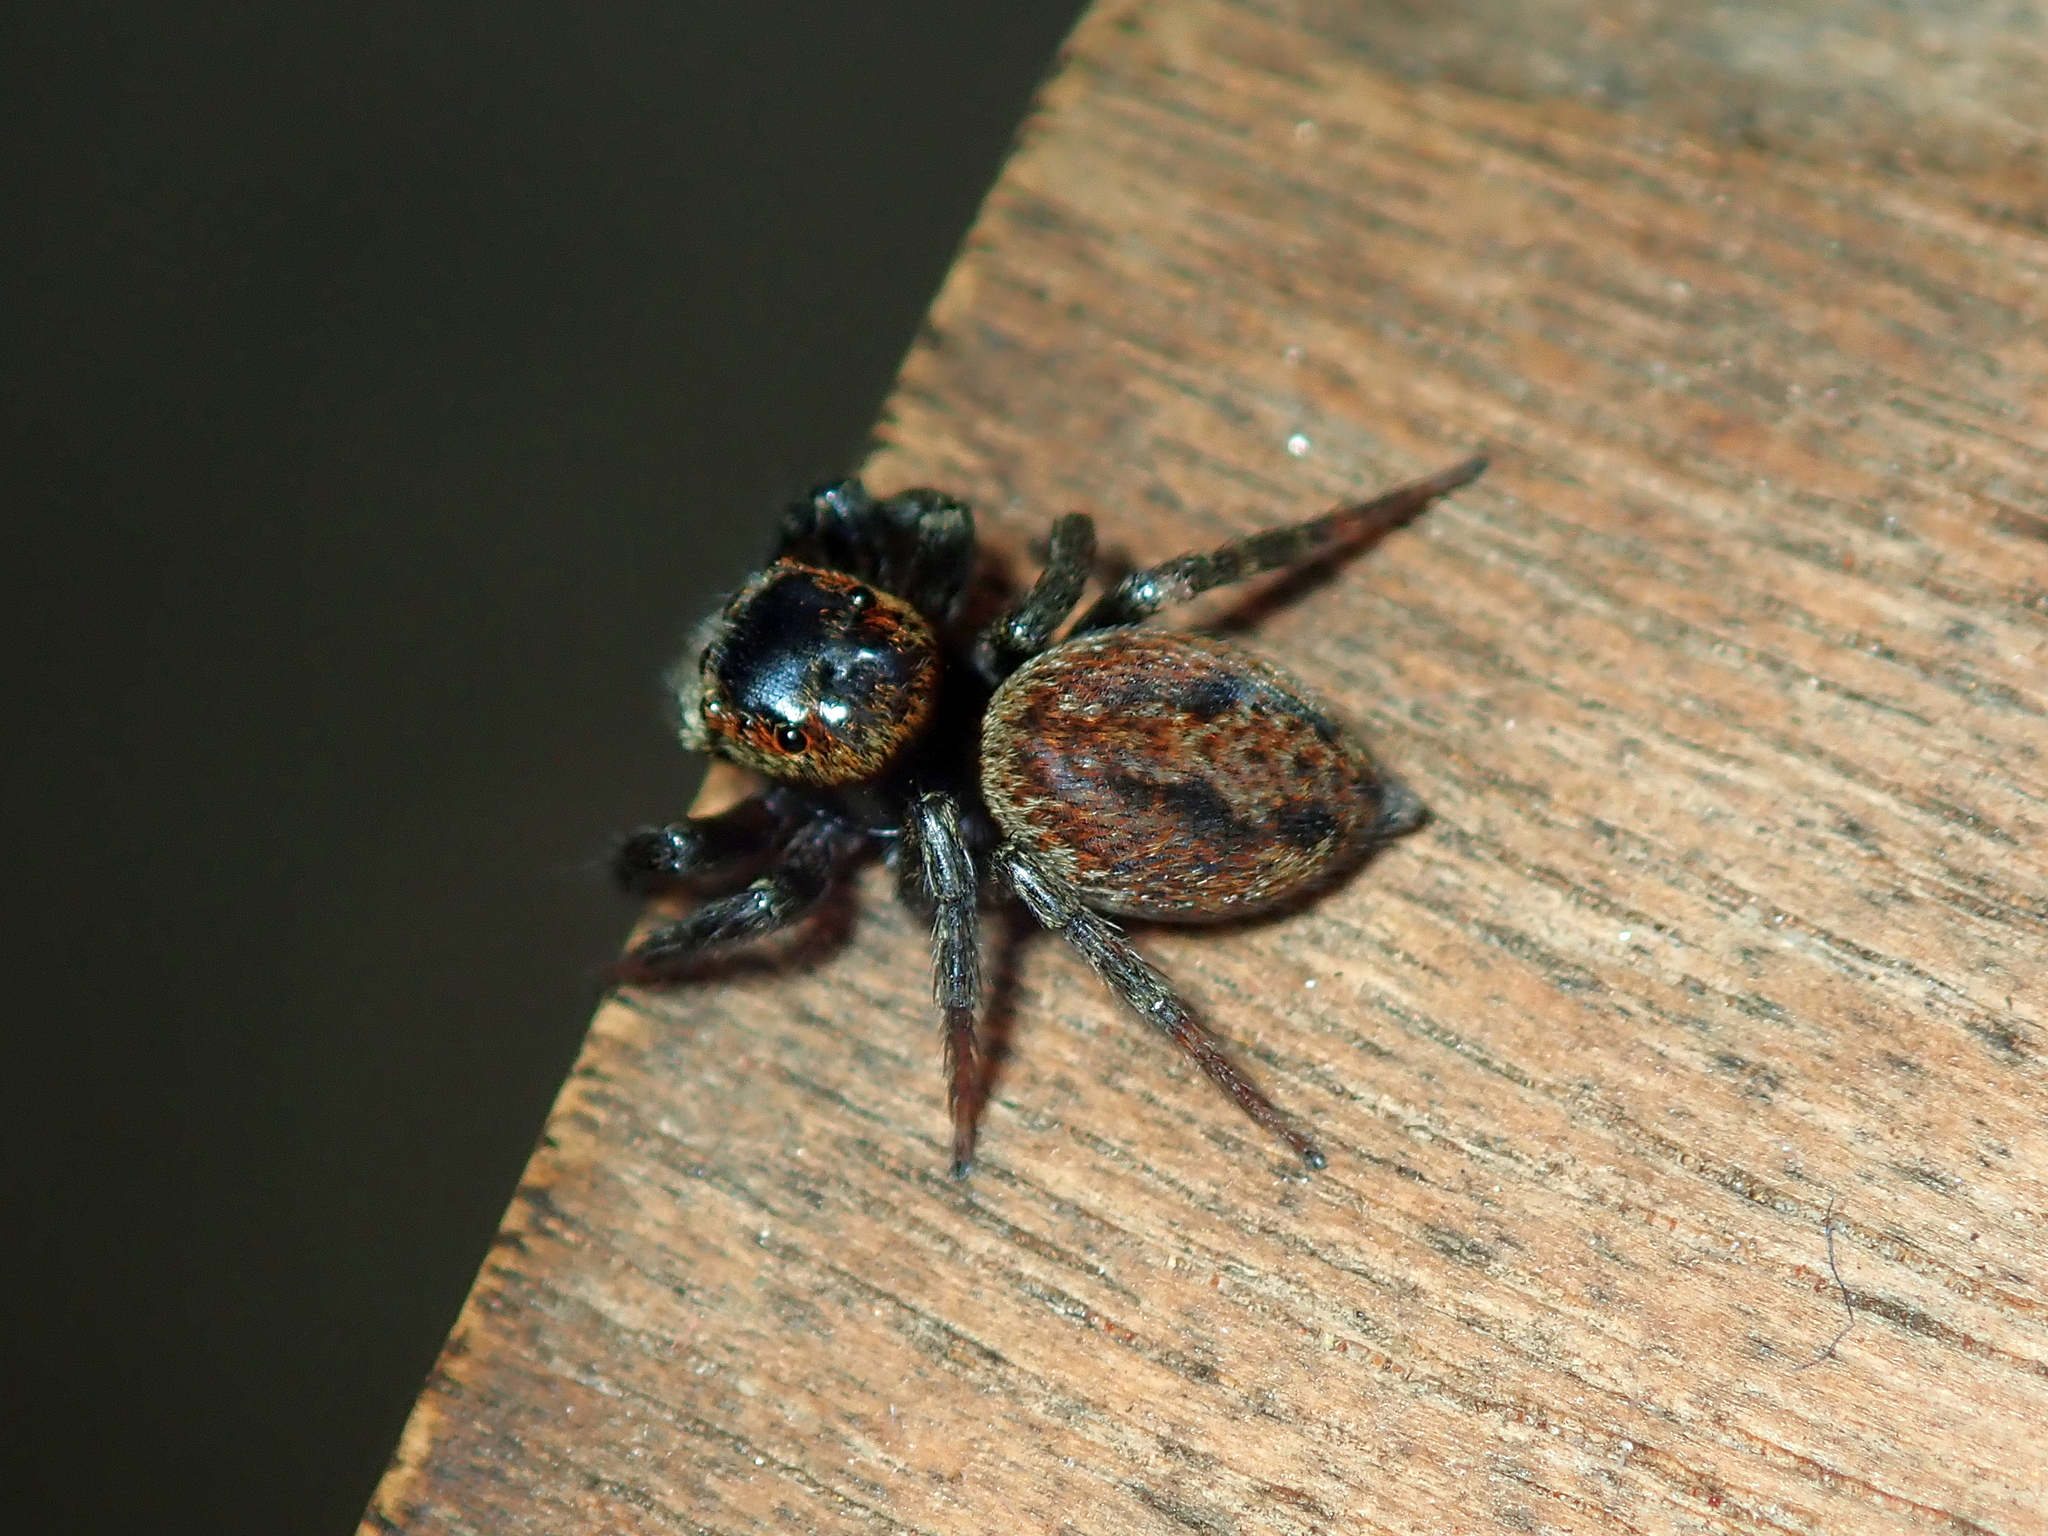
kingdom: Animalia
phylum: Arthropoda
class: Arachnida
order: Araneae
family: Salticidae
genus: Hasarius
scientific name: Hasarius adansoni
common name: Jumping spider
